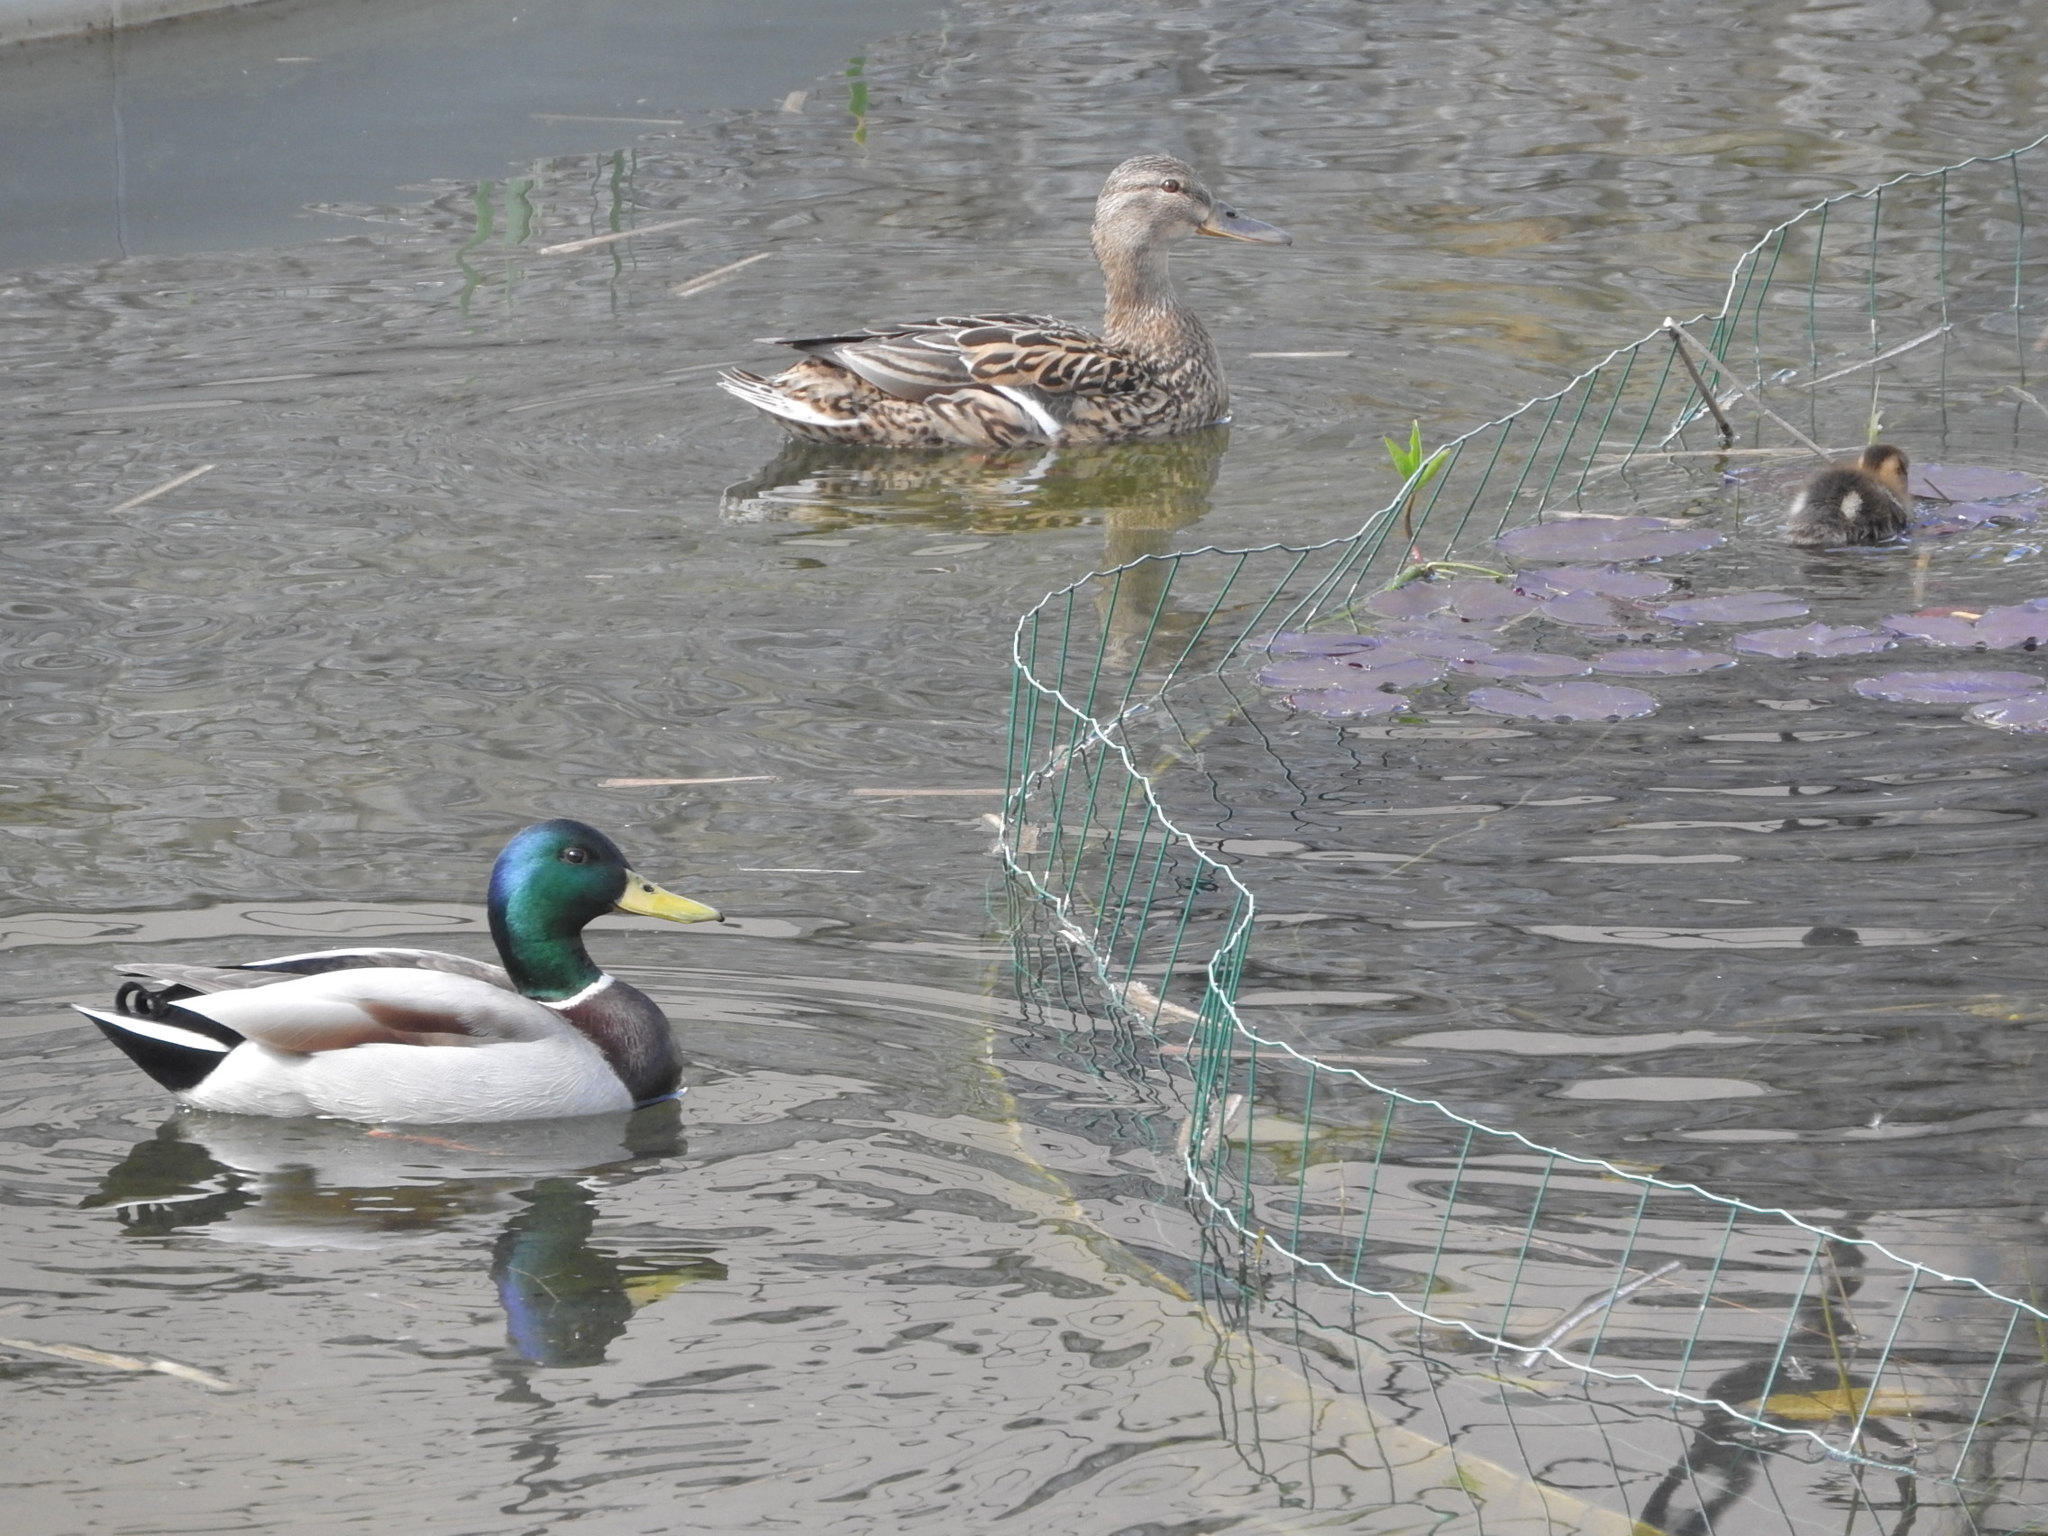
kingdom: Animalia
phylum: Chordata
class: Aves
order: Anseriformes
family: Anatidae
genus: Anas
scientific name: Anas platyrhynchos
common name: Mallard
